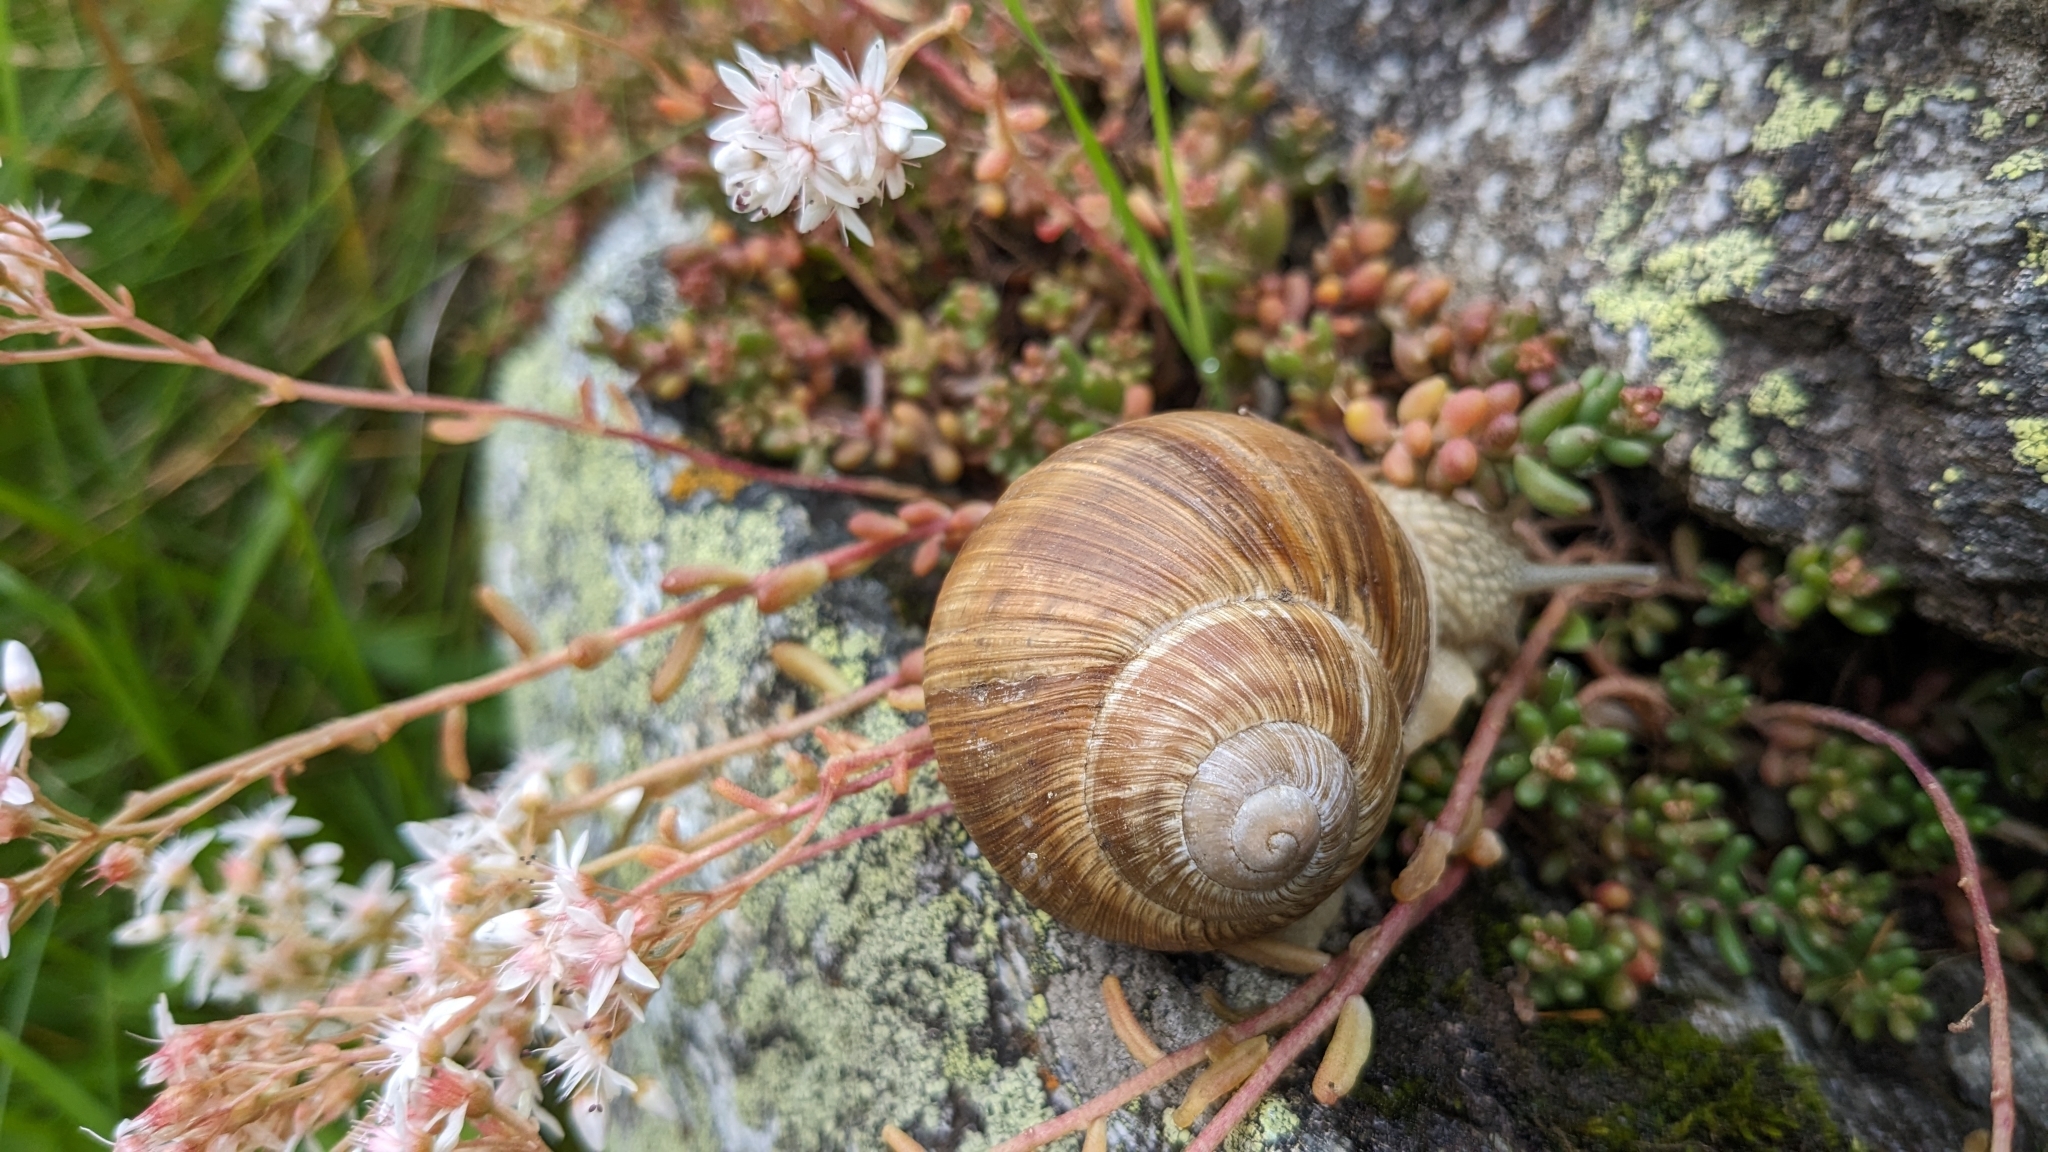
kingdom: Animalia
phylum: Mollusca
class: Gastropoda
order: Stylommatophora
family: Helicidae
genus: Helix
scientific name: Helix pomatia
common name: Roman snail
